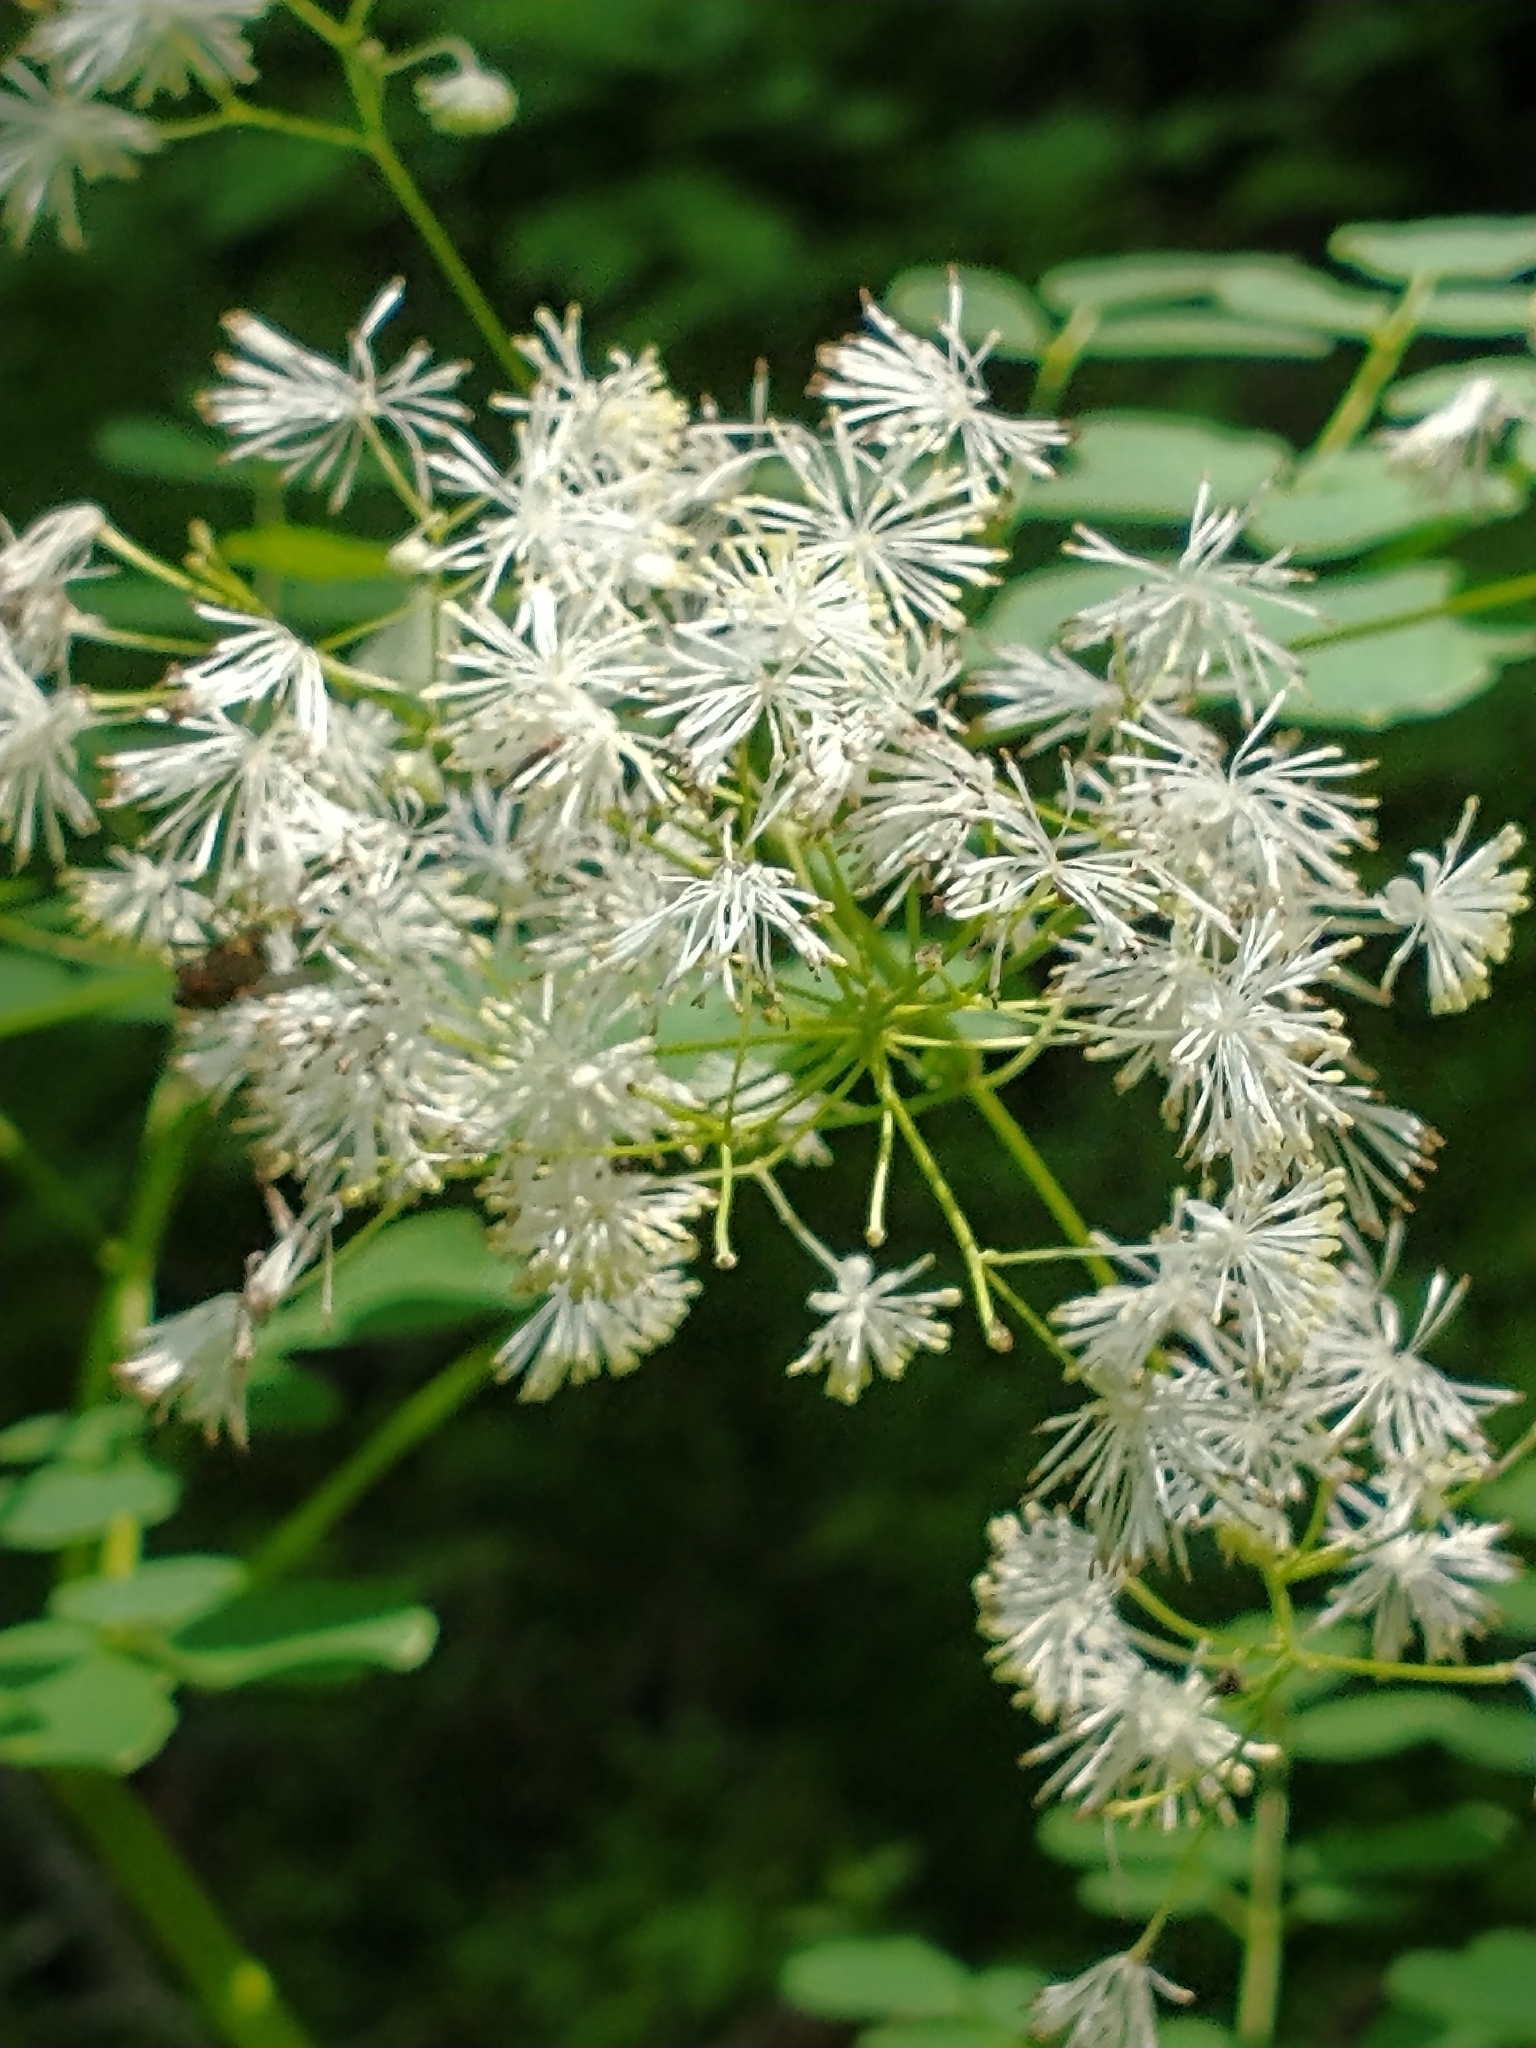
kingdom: Plantae
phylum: Tracheophyta
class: Magnoliopsida
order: Ranunculales
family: Ranunculaceae
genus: Thalictrum
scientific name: Thalictrum pubescens
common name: King-of-the-meadow
